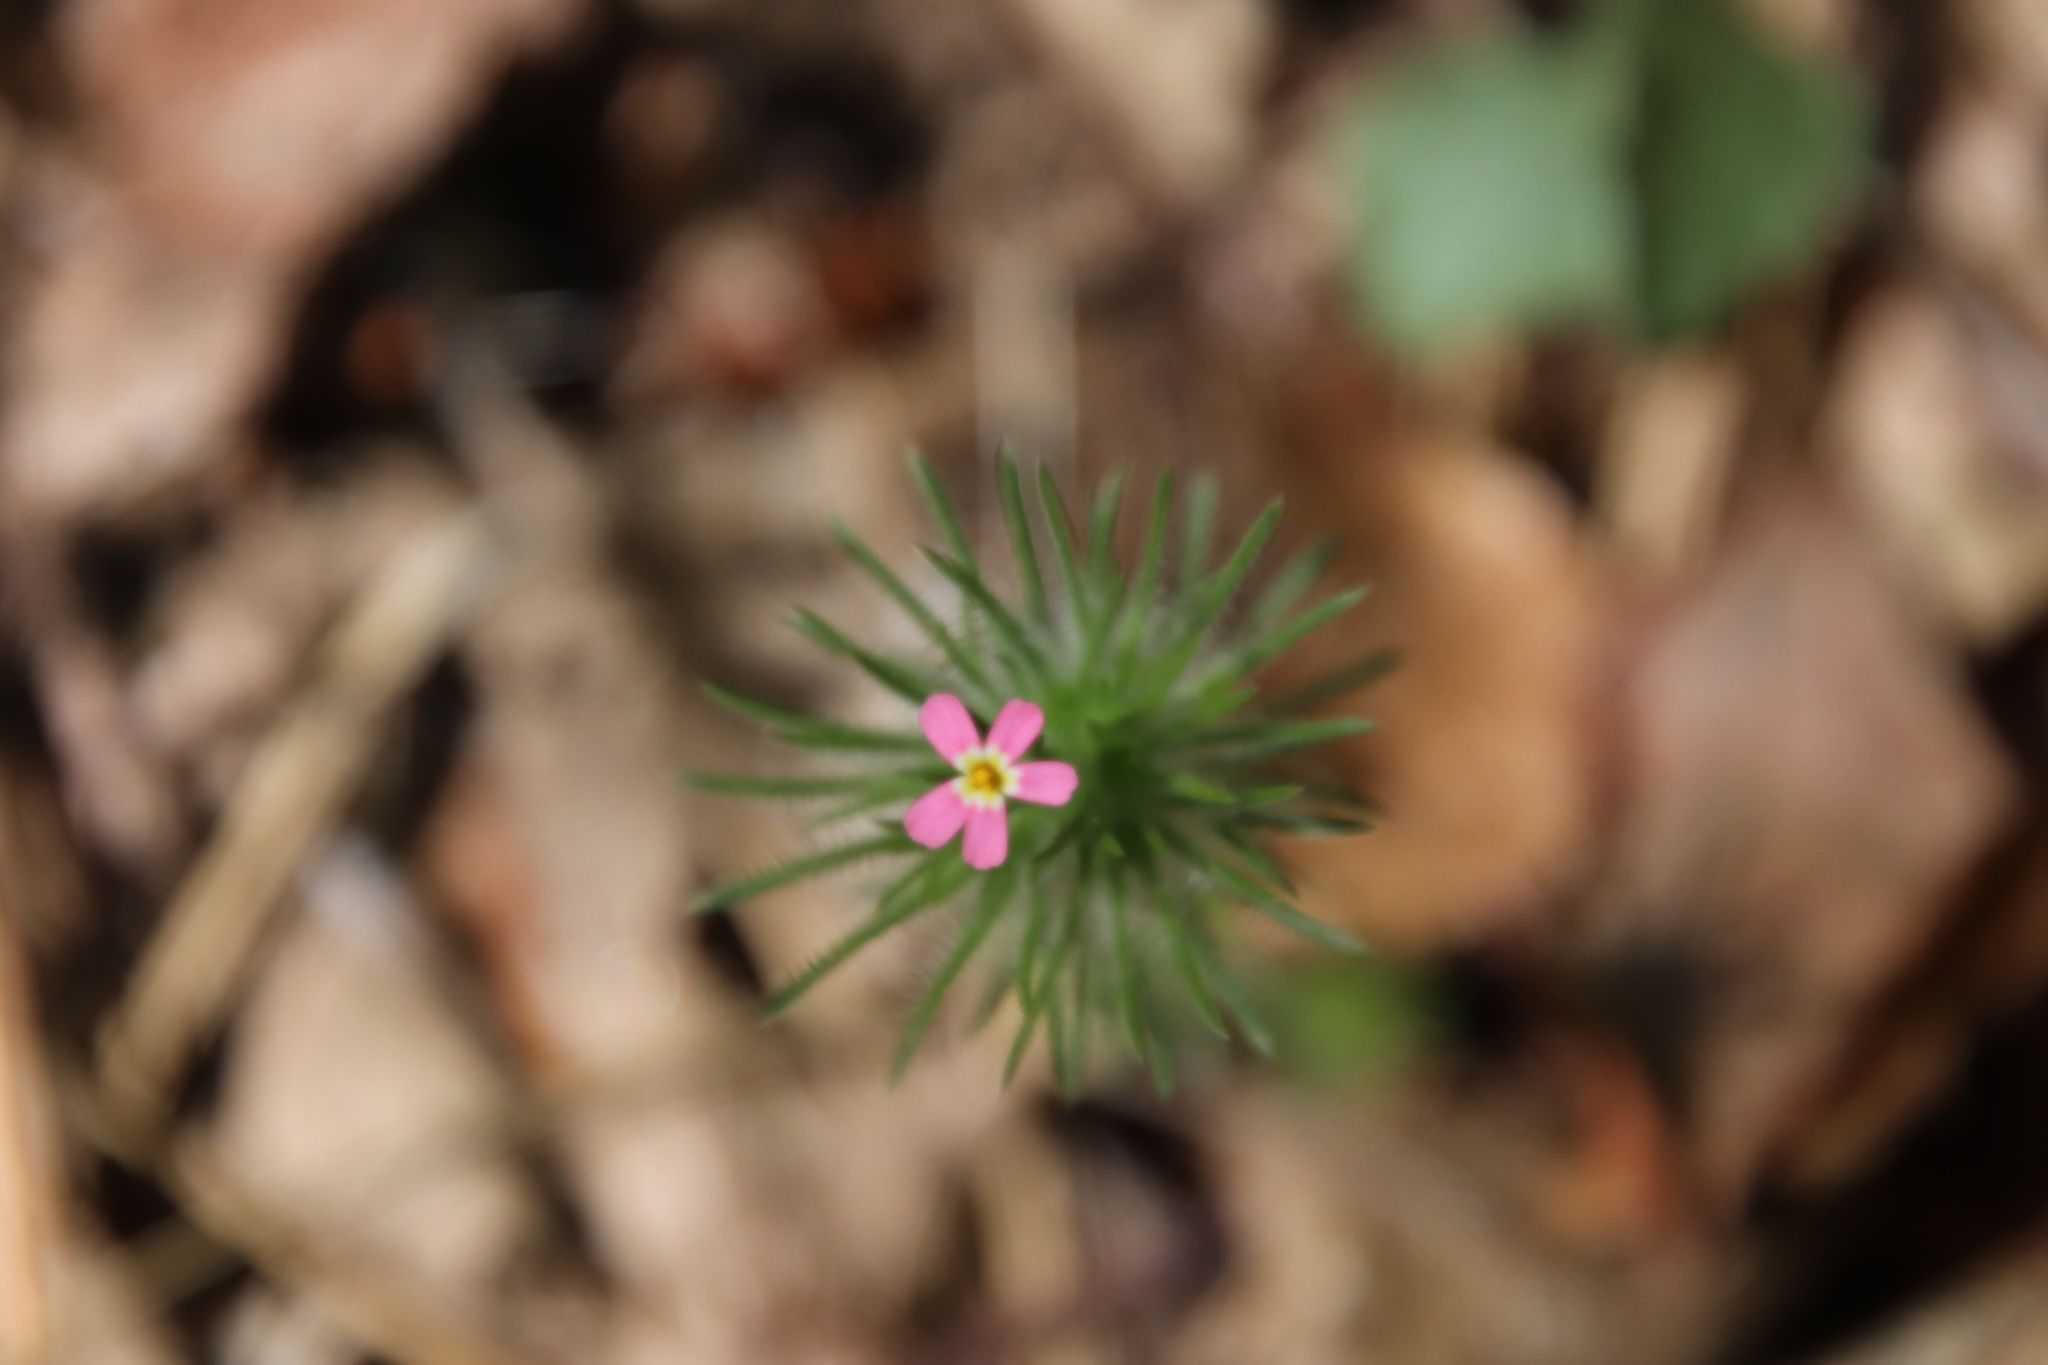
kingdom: Plantae
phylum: Tracheophyta
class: Magnoliopsida
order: Ericales
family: Polemoniaceae
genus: Leptosiphon
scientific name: Leptosiphon ciliatus
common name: Whiskerbrush
